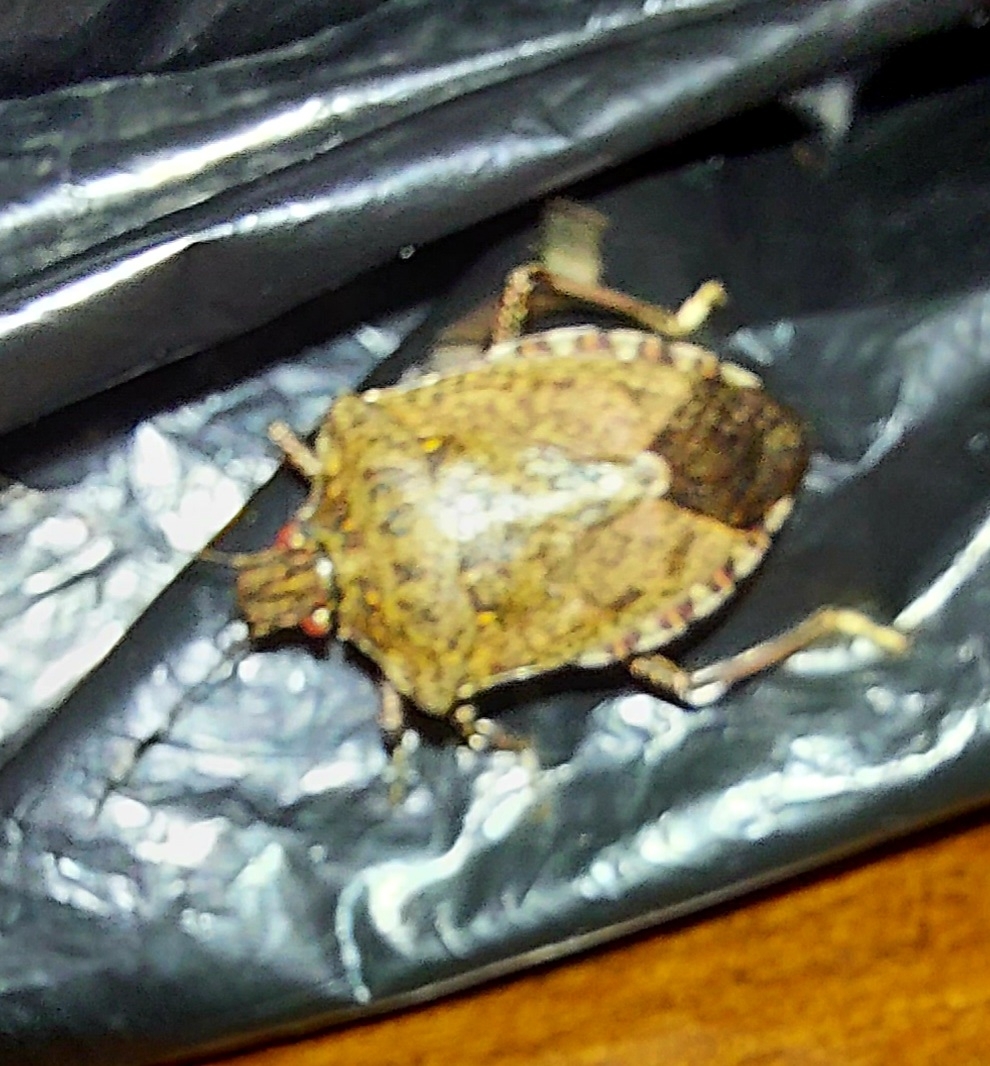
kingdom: Animalia
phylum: Arthropoda
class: Insecta
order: Hemiptera
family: Pentatomidae
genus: Halyomorpha
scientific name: Halyomorpha halys
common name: Brown marmorated stink bug
